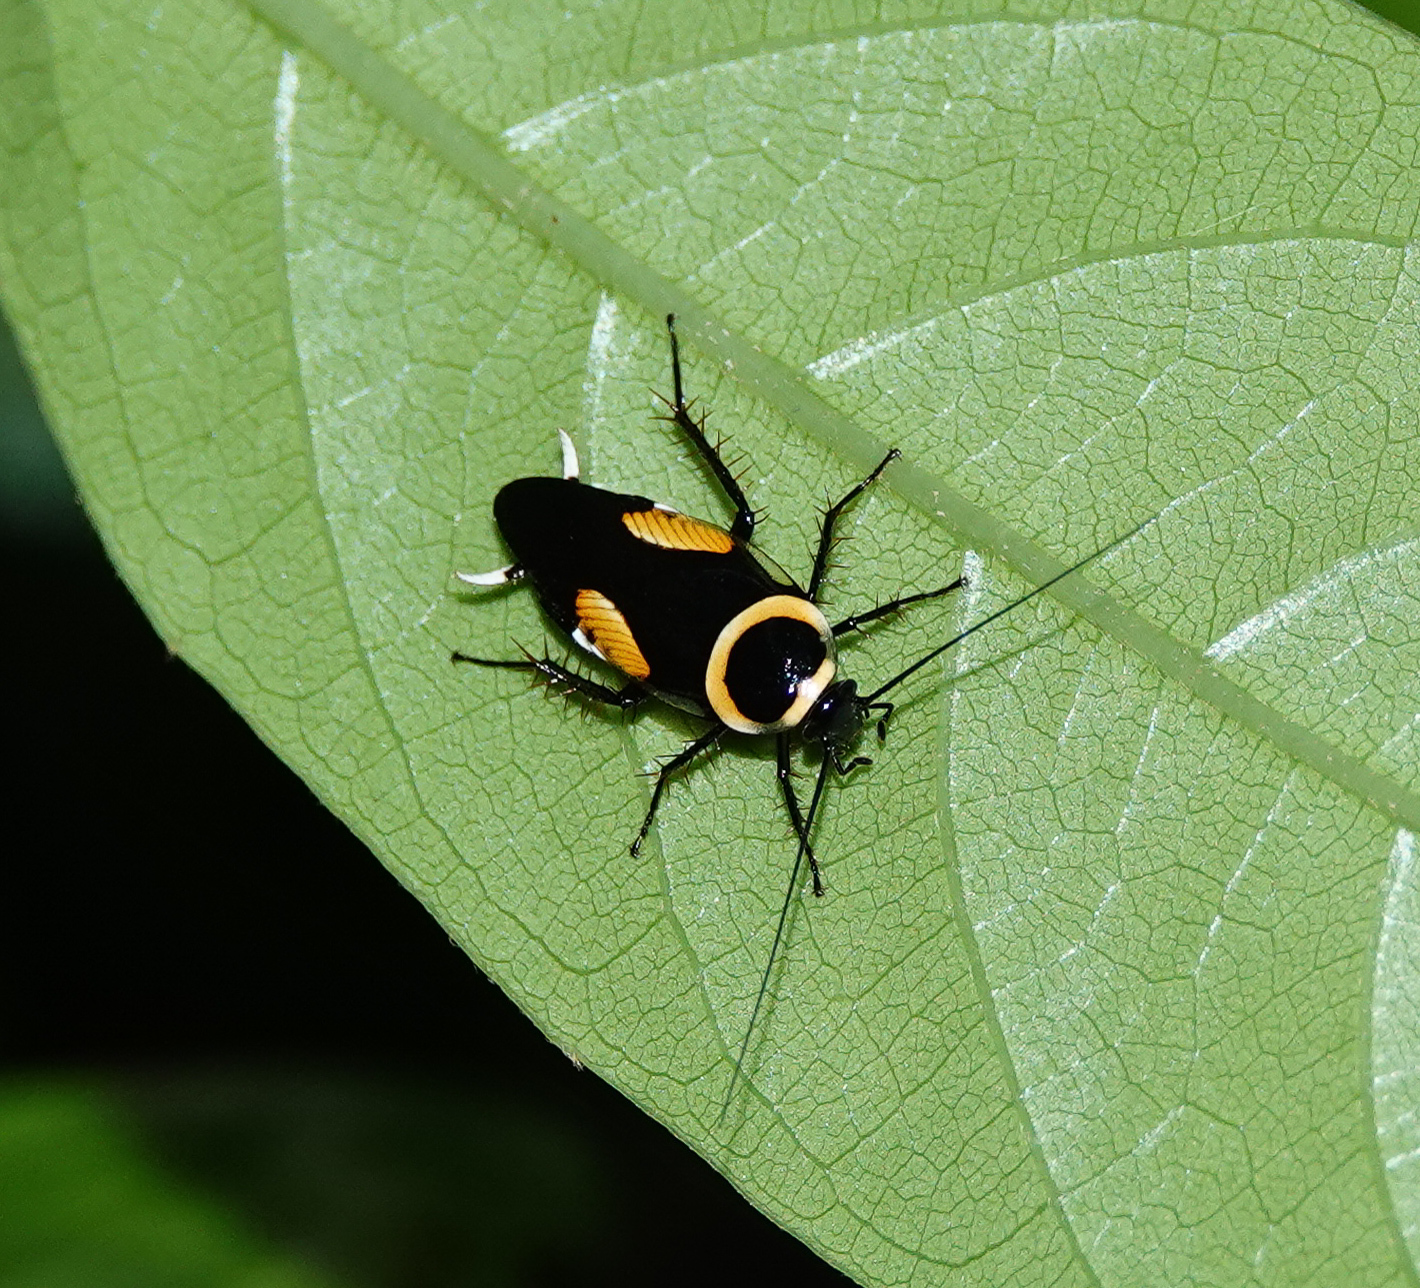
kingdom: Animalia
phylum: Arthropoda
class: Insecta
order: Blattodea
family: Ectobiidae
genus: Hemithyrsocera
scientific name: Hemithyrsocera vittata
